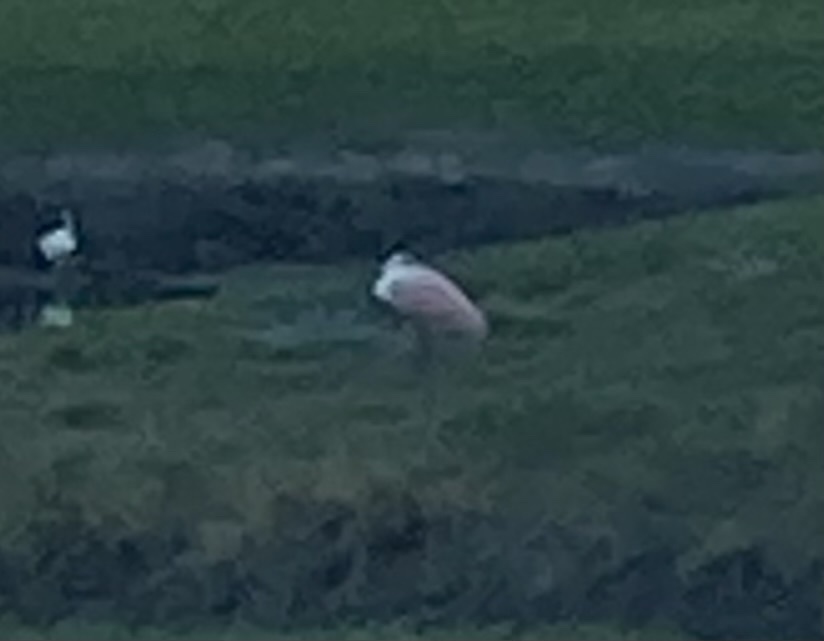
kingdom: Animalia
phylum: Chordata
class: Aves
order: Pelecaniformes
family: Threskiornithidae
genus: Platalea
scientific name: Platalea ajaja
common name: Roseate spoonbill
